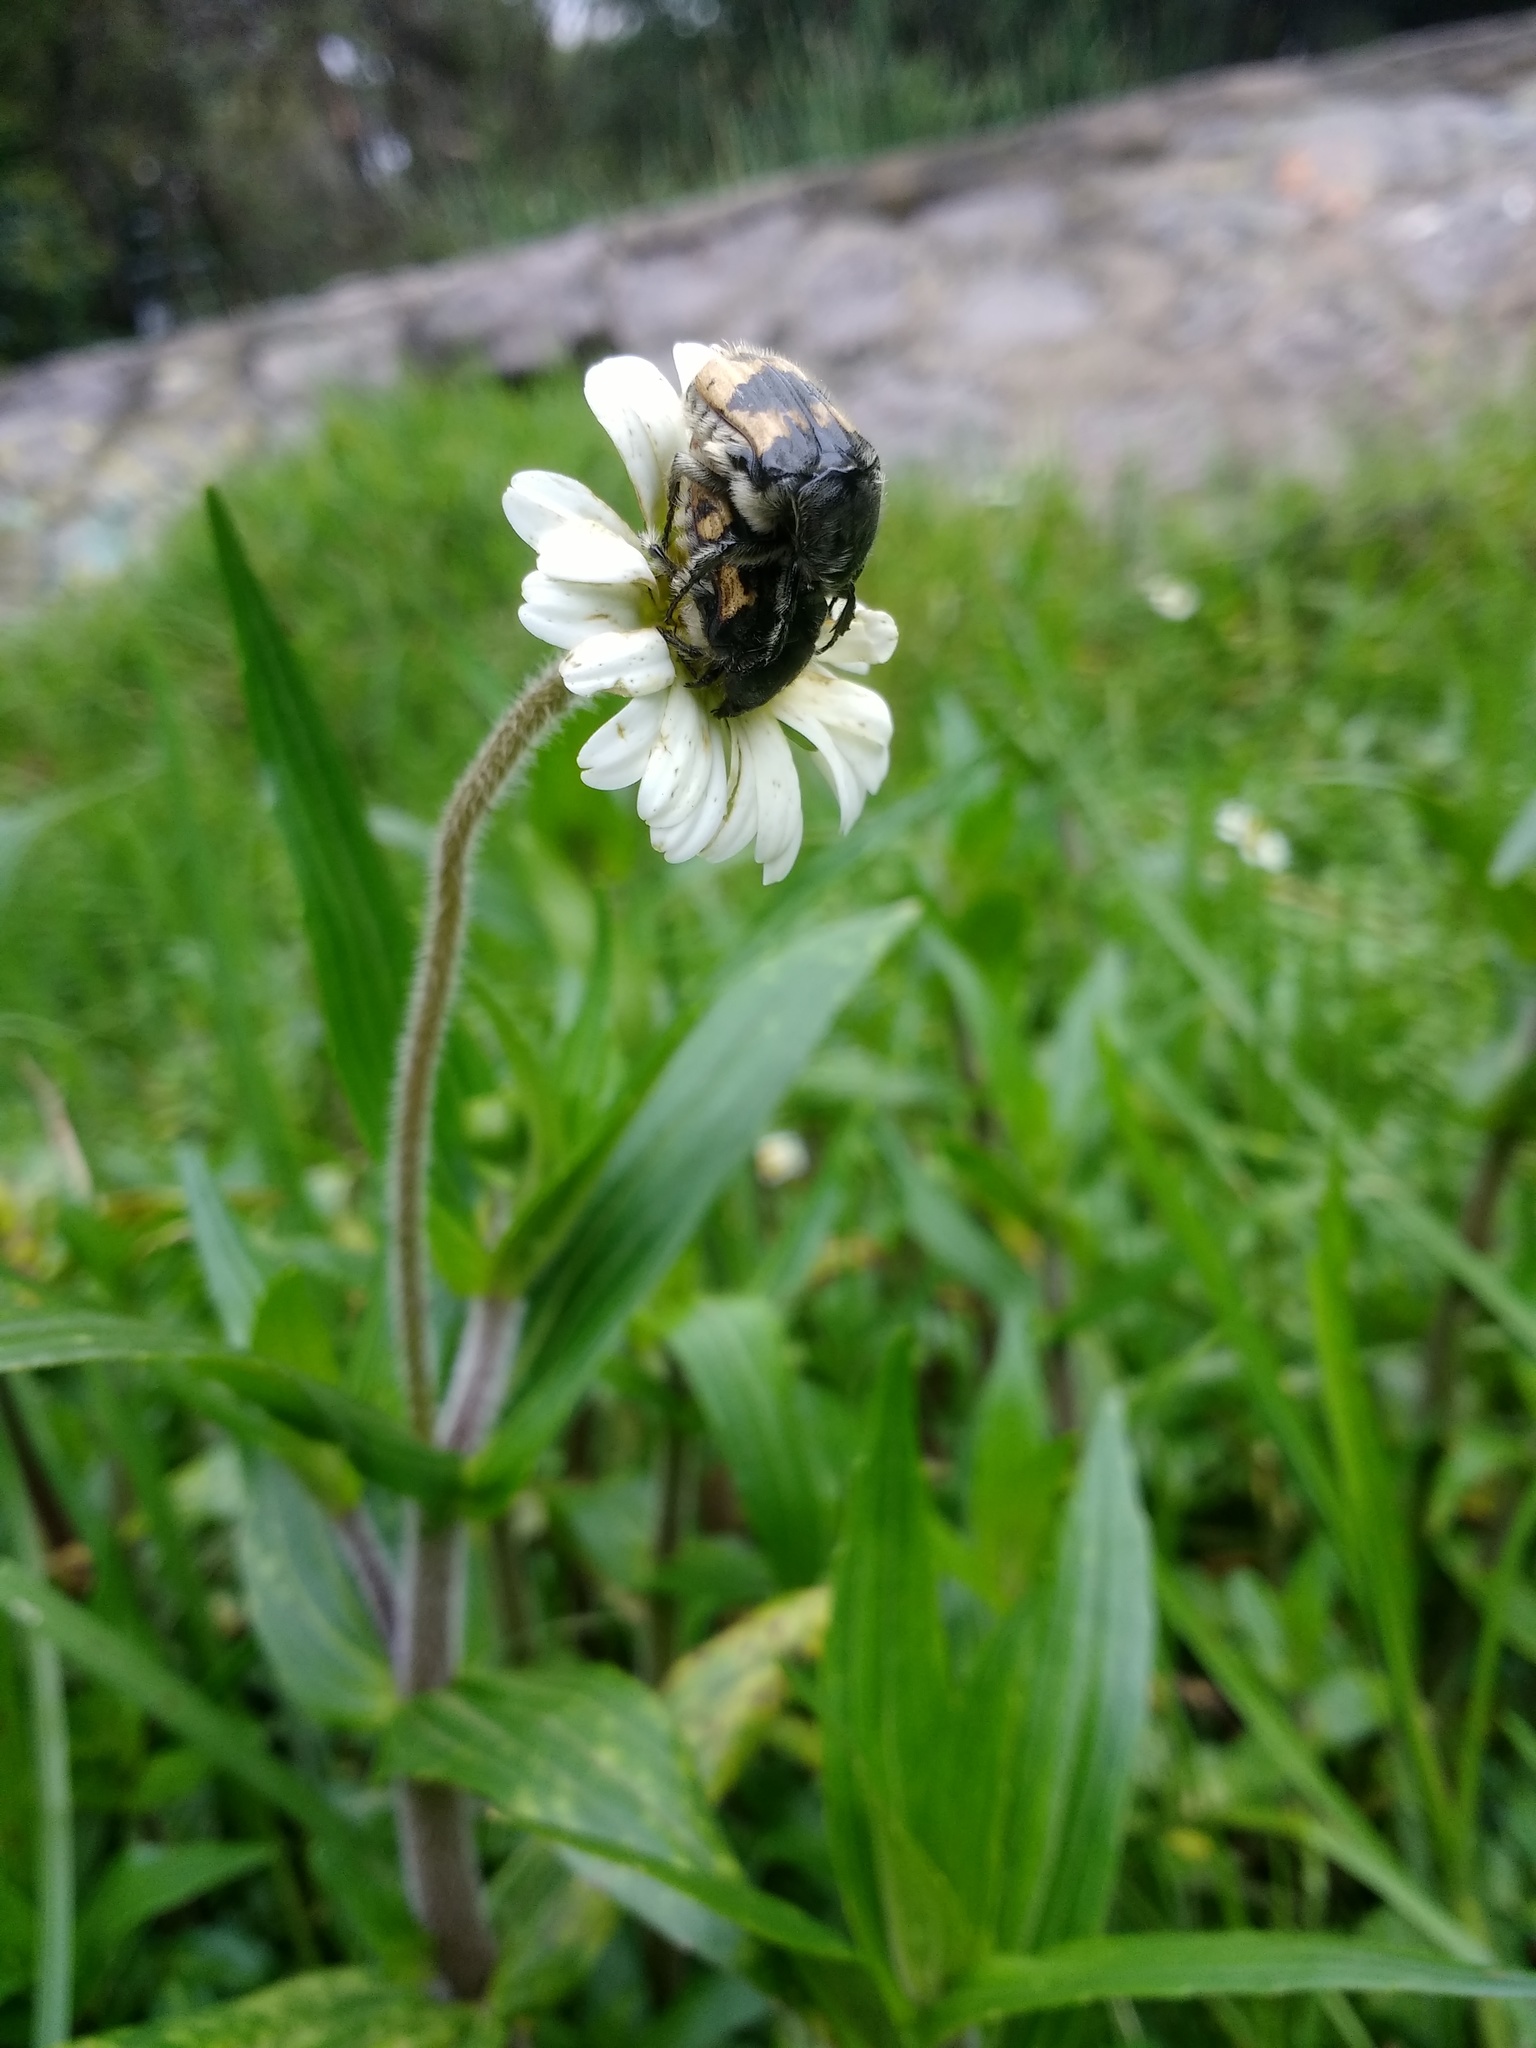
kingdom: Animalia
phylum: Arthropoda
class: Insecta
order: Coleoptera
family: Scarabaeidae
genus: Euphoria
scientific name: Euphoria basalis
